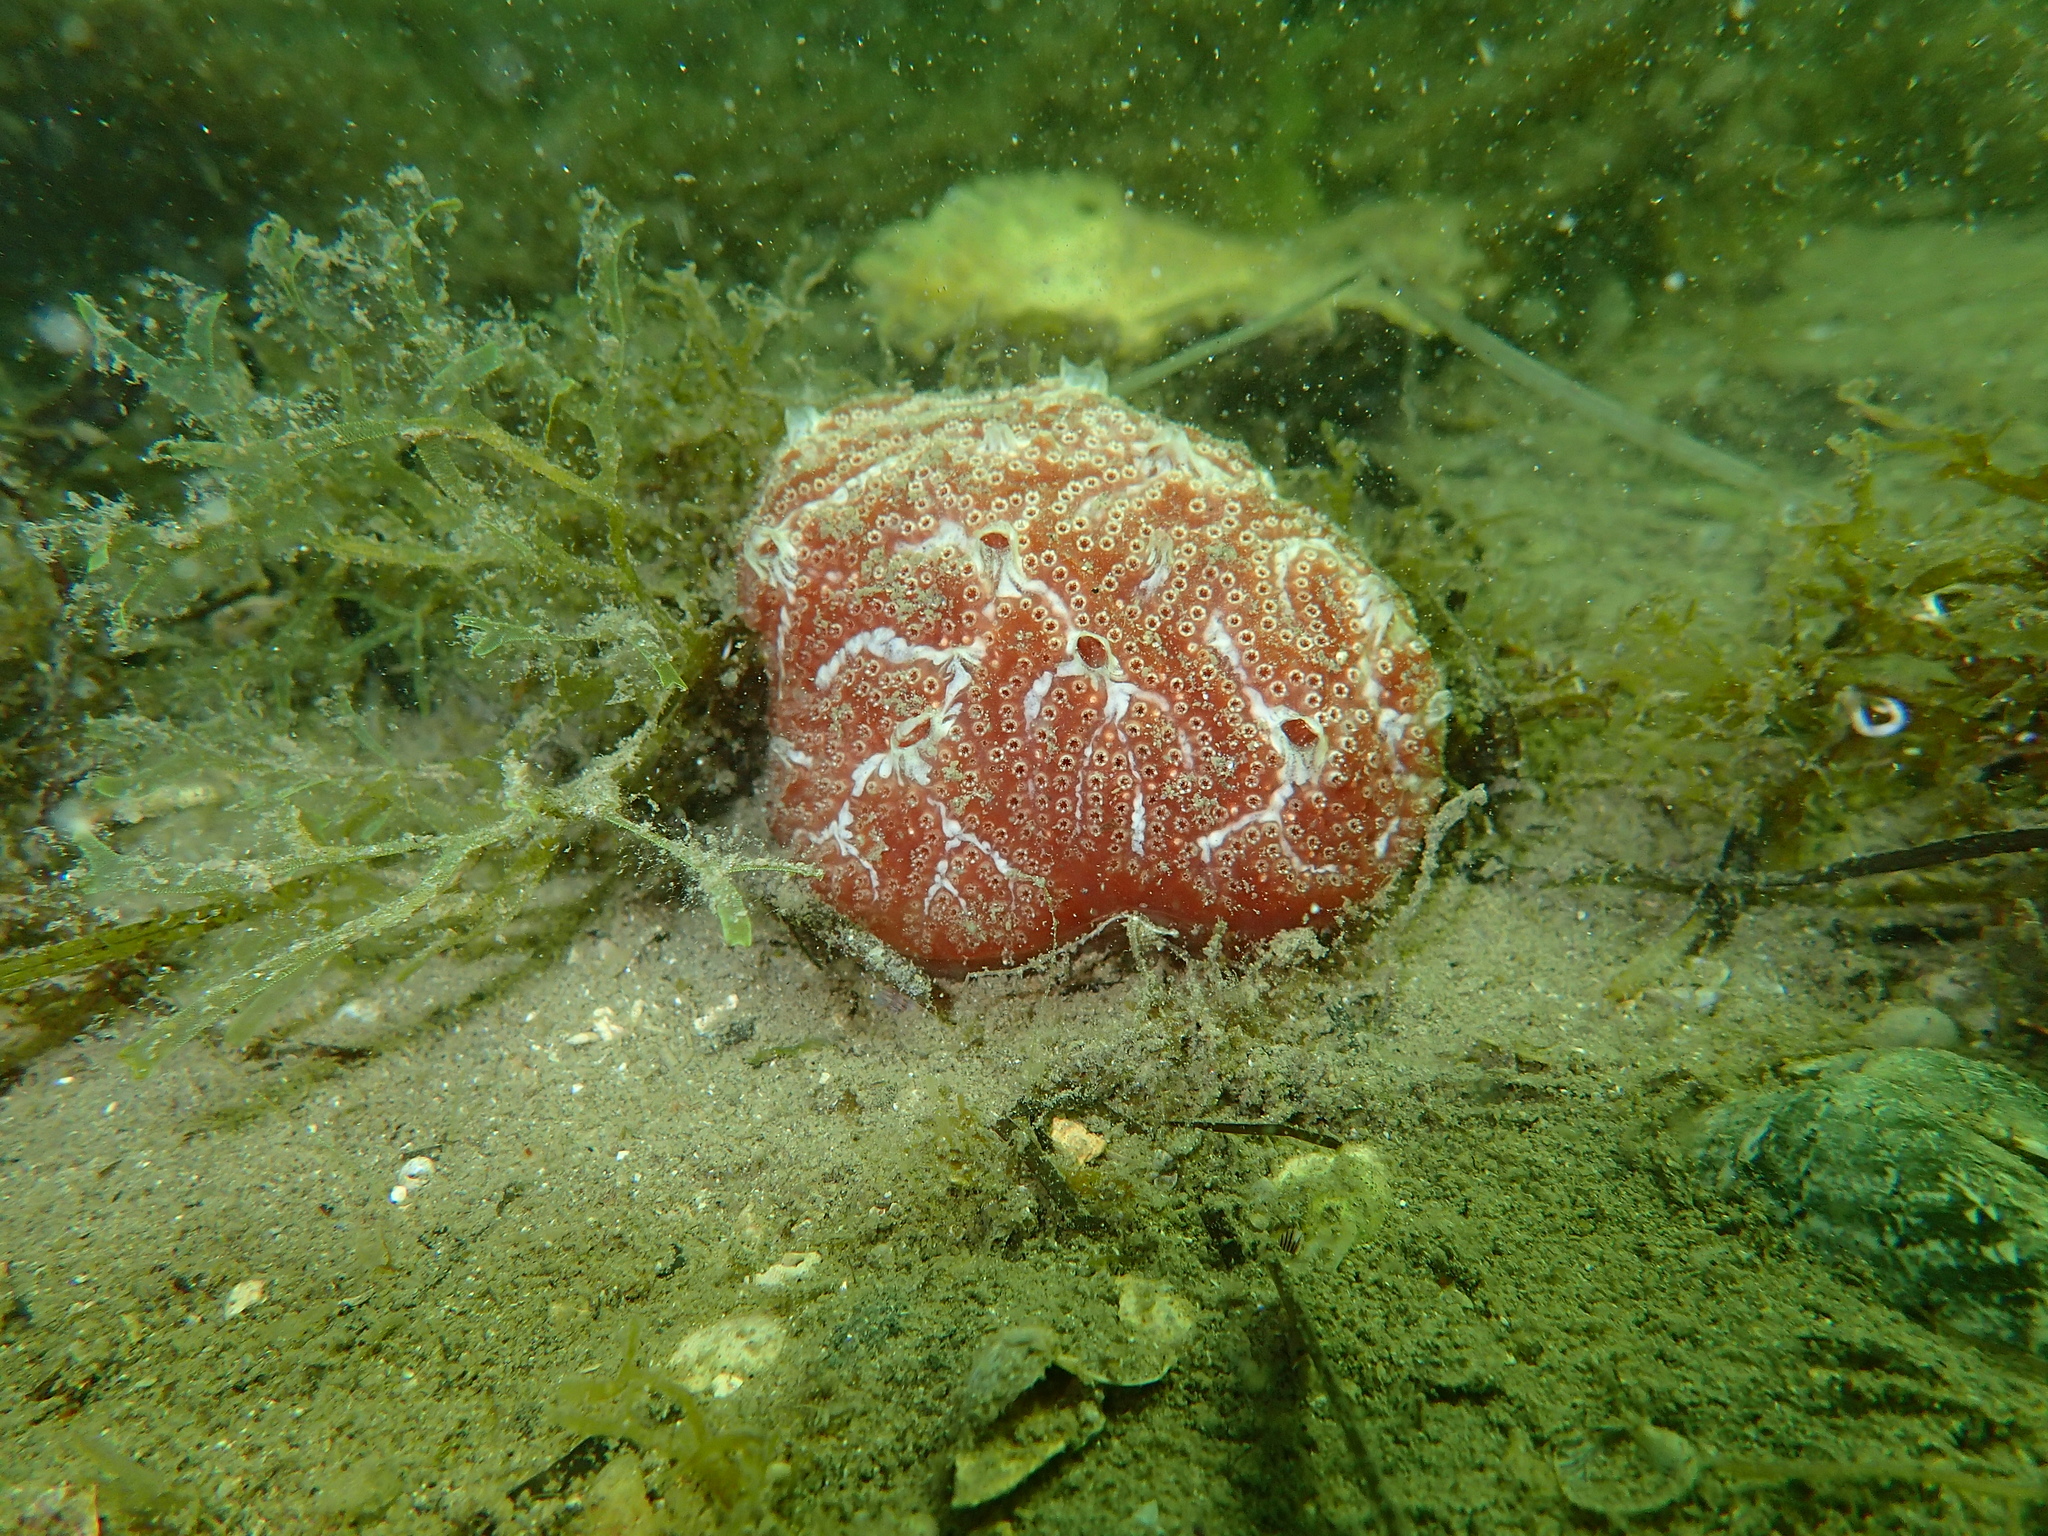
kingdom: Animalia
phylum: Chordata
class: Ascidiacea
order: Aplousobranchia
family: Polyclinidae
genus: Aplidium
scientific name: Aplidium nordmanni
